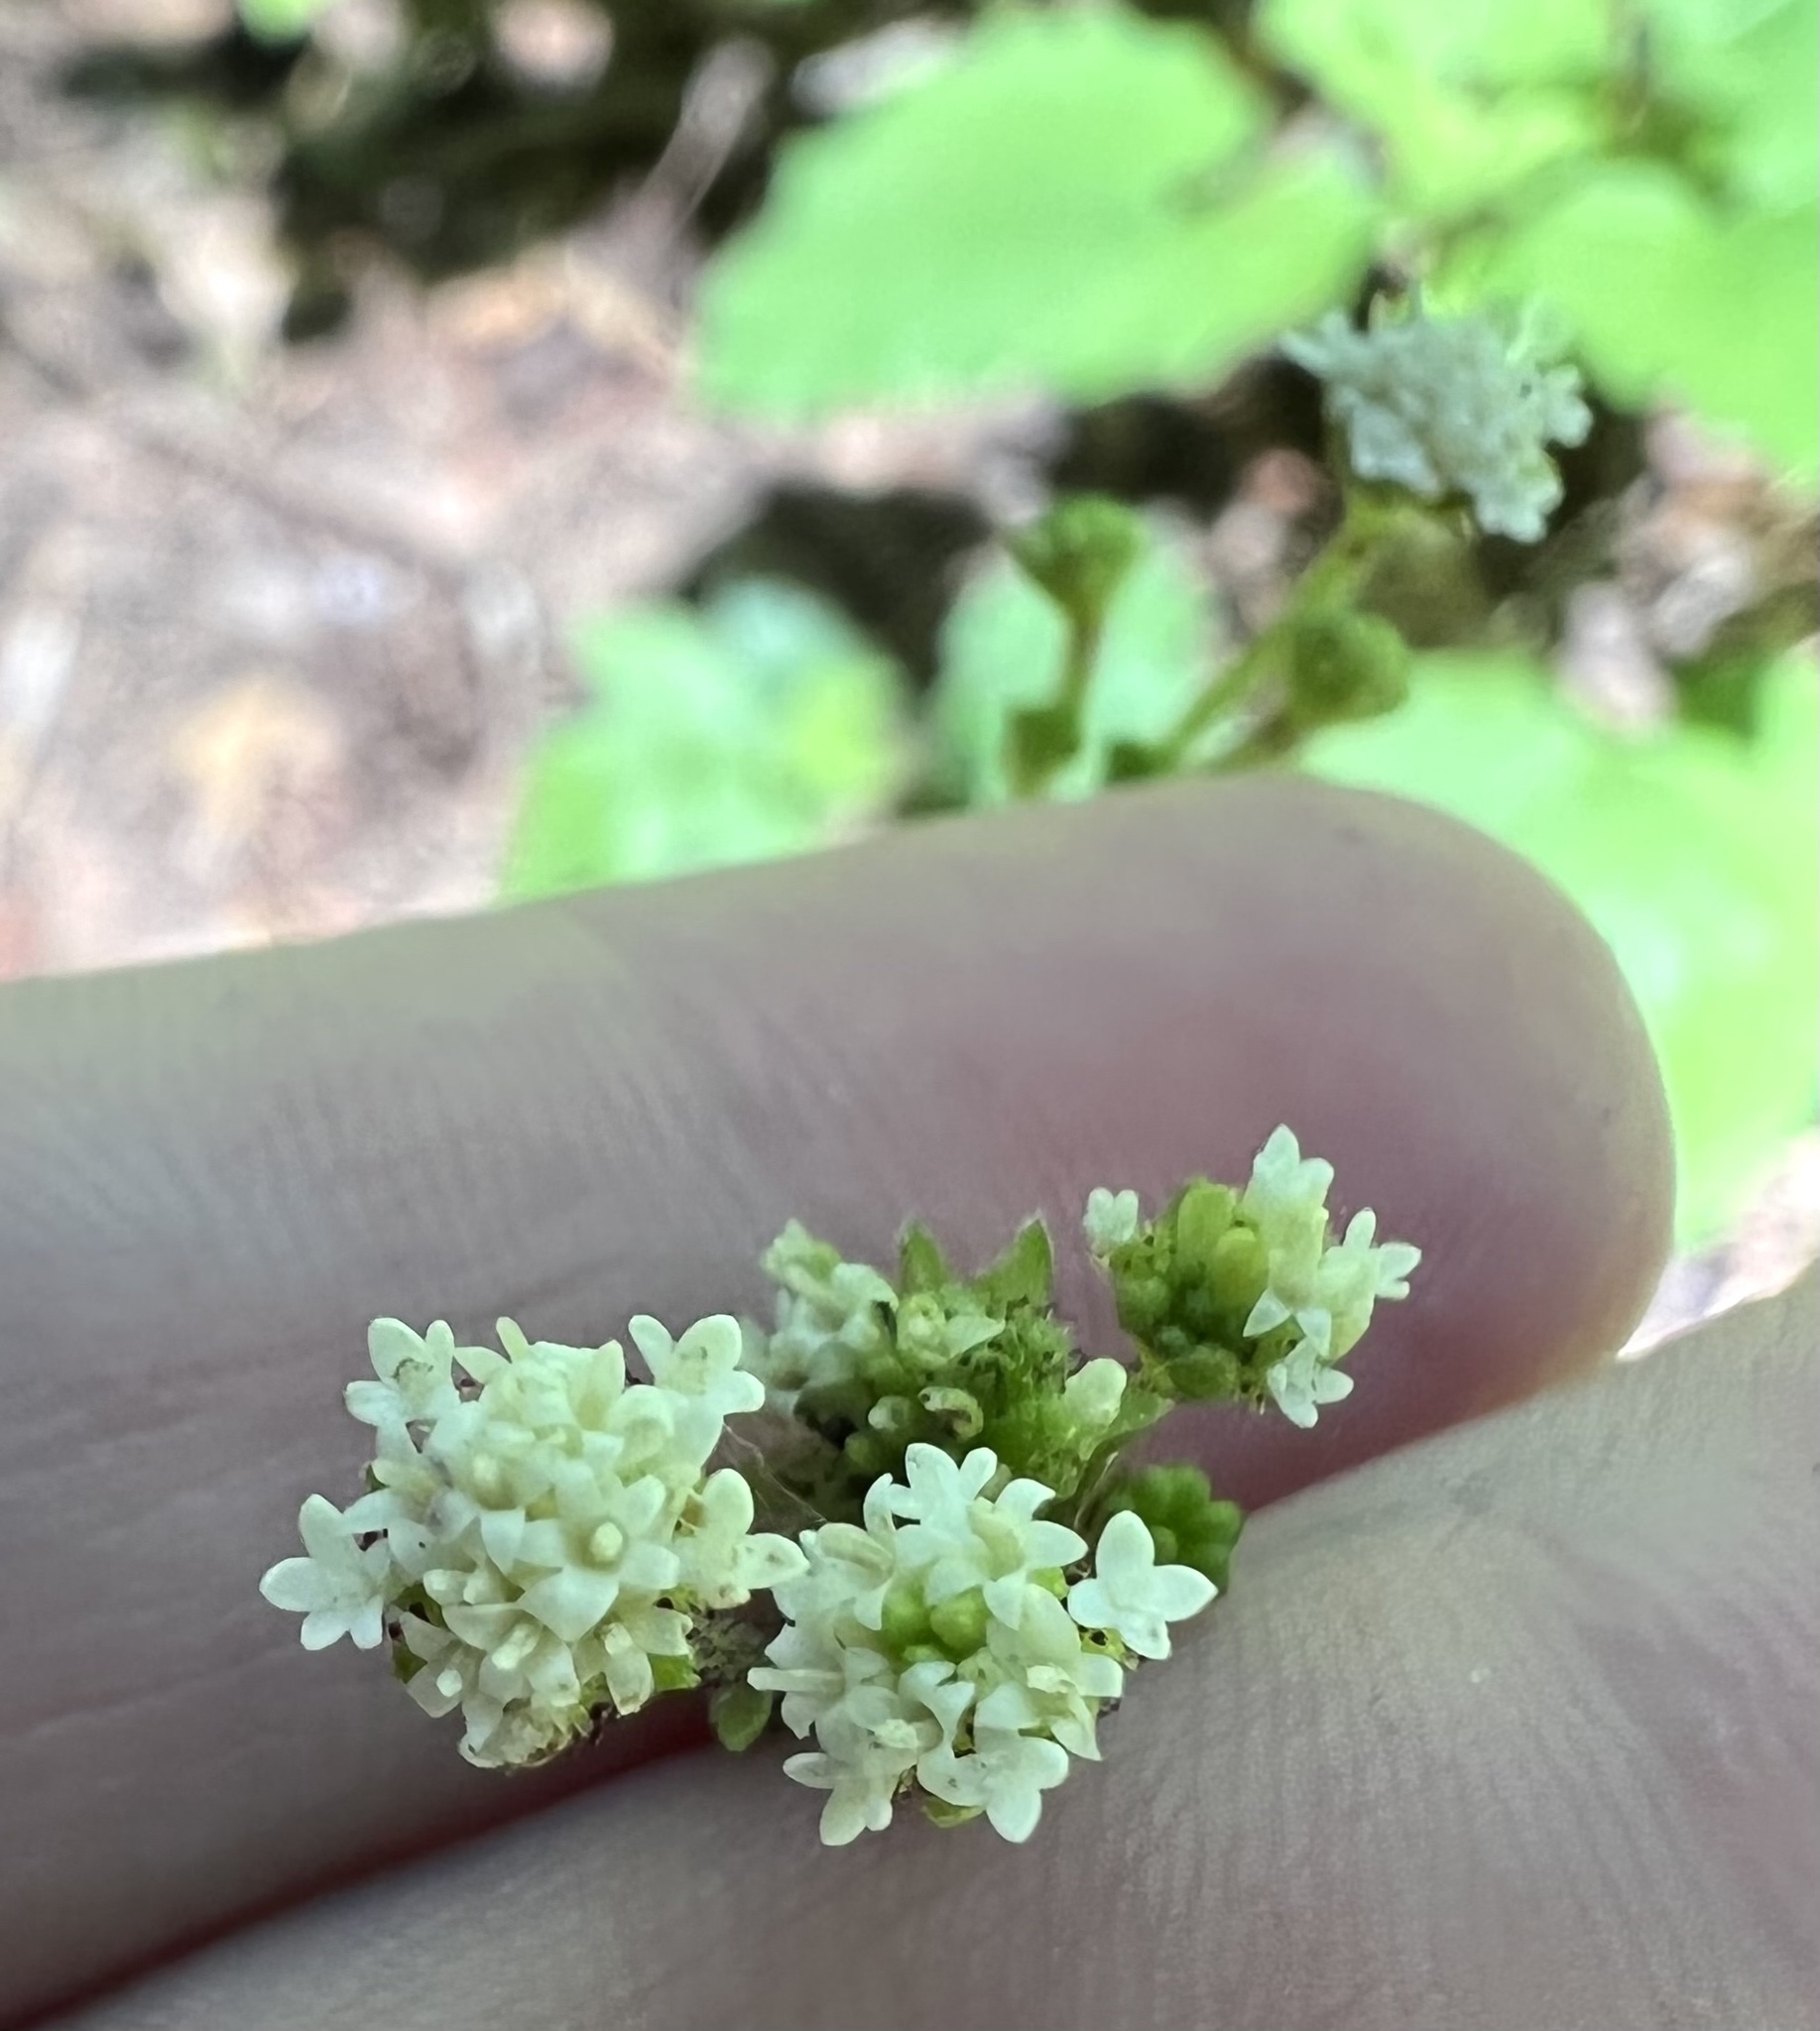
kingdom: Plantae
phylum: Tracheophyta
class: Magnoliopsida
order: Asterales
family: Asteraceae
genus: Adenocaulon
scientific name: Adenocaulon bicolor
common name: Trailplant
